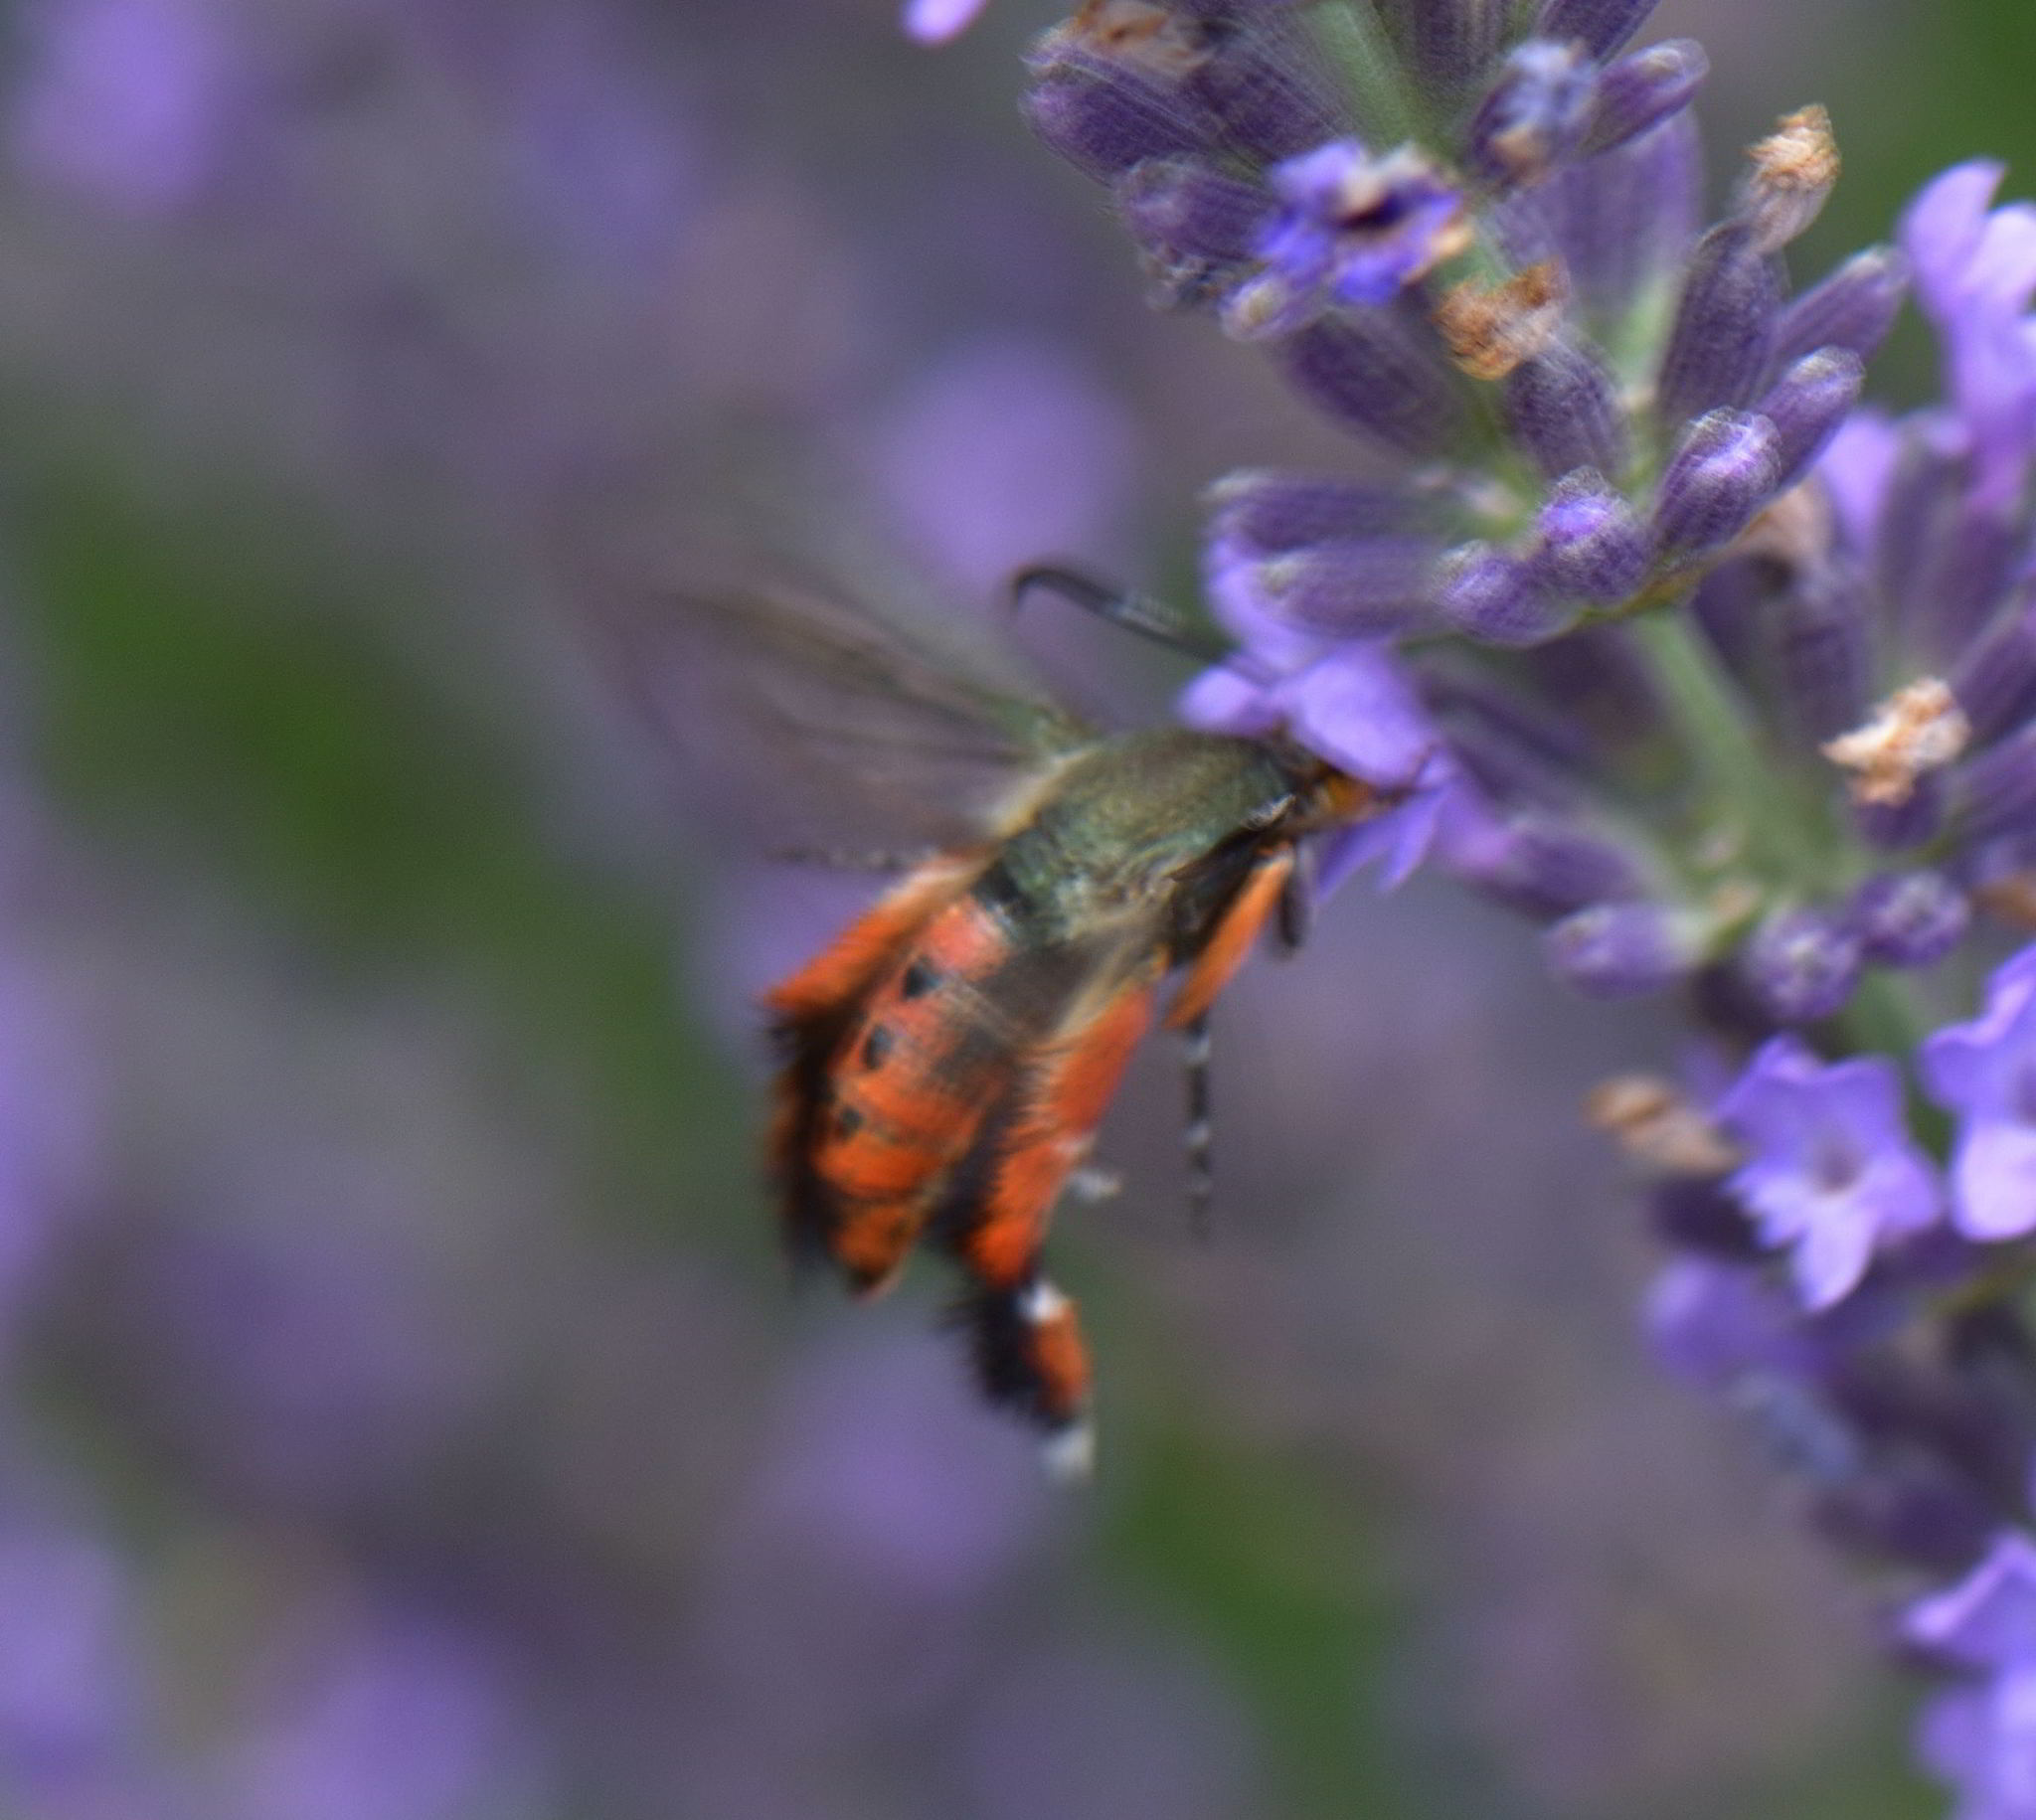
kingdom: Animalia
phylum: Arthropoda
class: Insecta
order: Lepidoptera
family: Sesiidae
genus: Eichlinia
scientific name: Eichlinia cucurbitae
